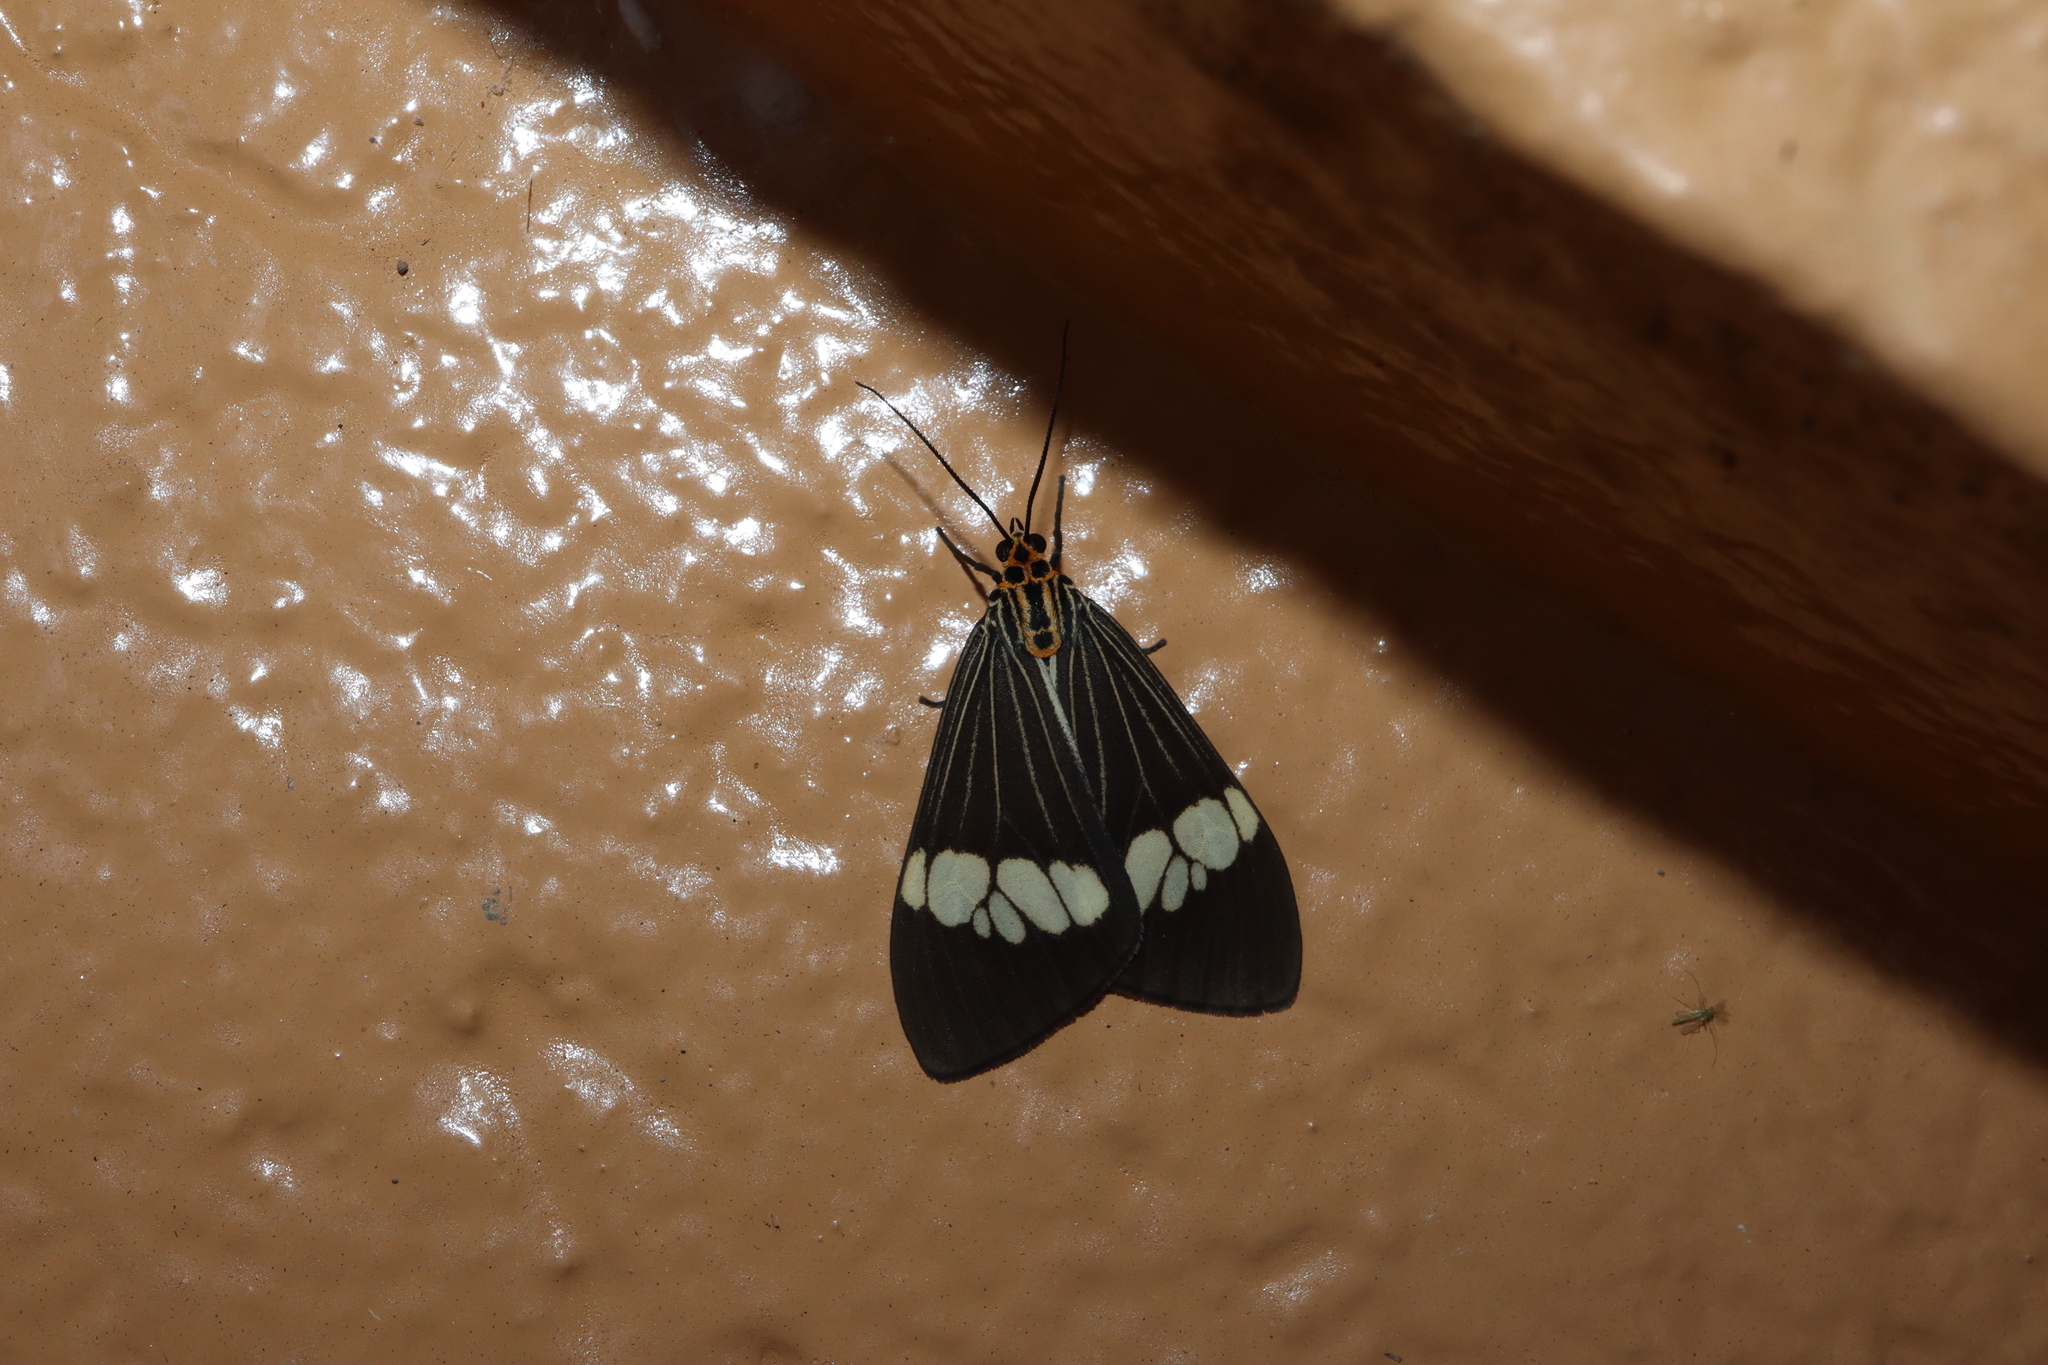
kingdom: Animalia
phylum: Arthropoda
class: Insecta
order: Lepidoptera
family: Erebidae
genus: Nyctemera
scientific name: Nyctemera baulus
